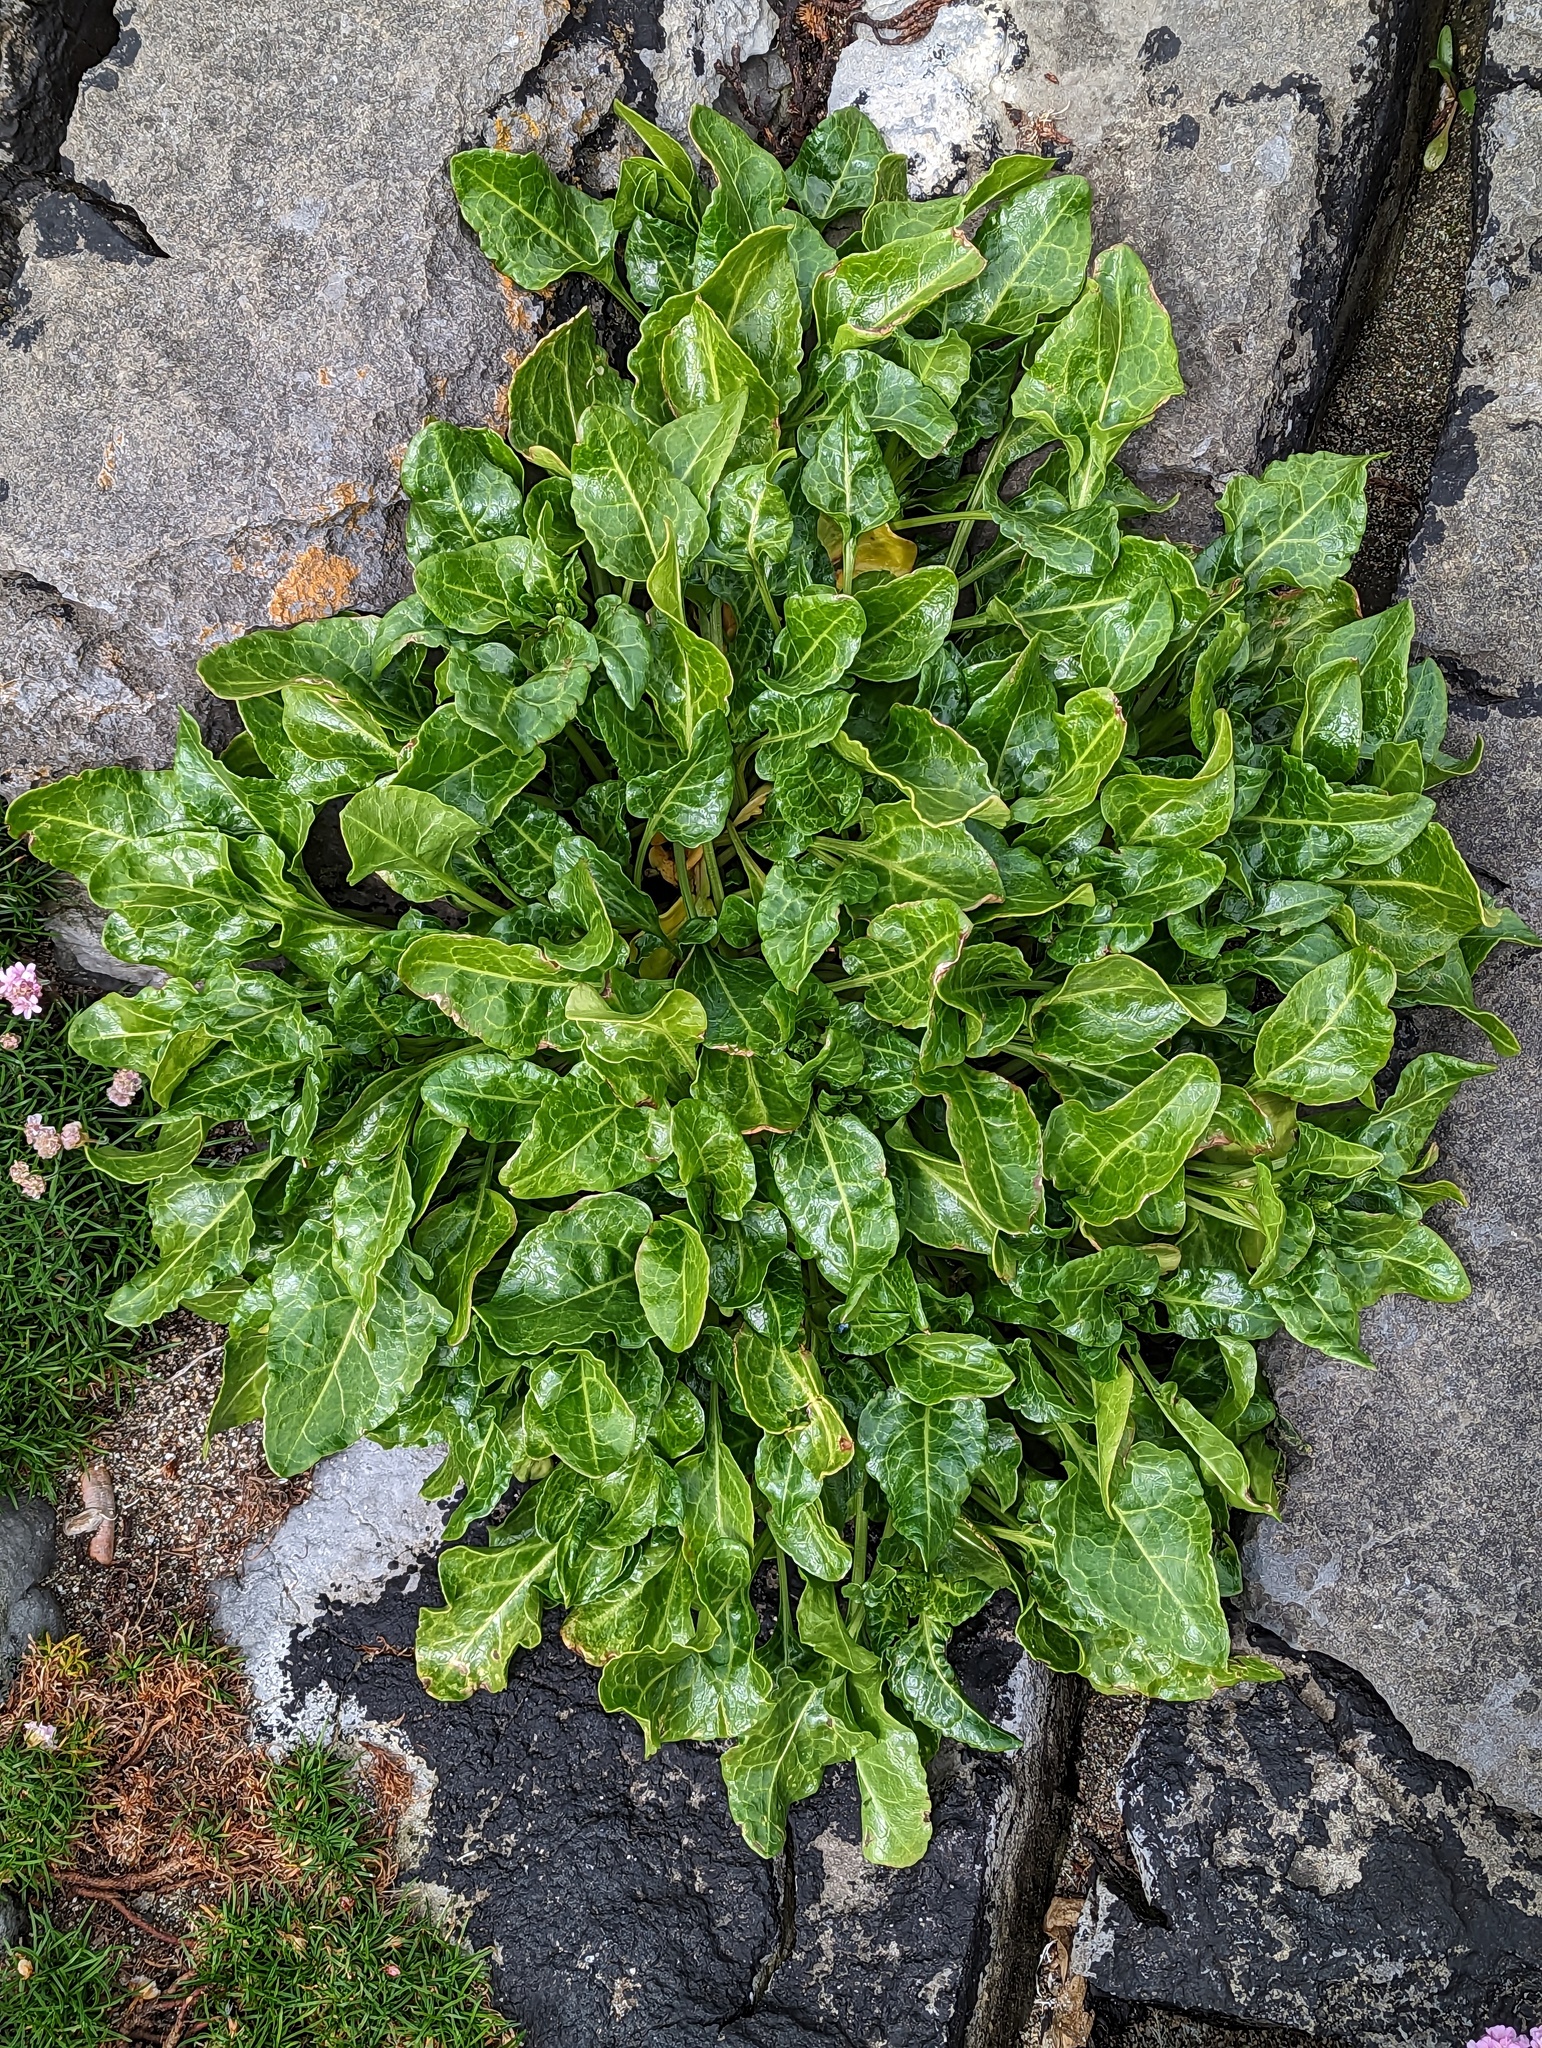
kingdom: Plantae
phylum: Tracheophyta
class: Magnoliopsida
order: Caryophyllales
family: Amaranthaceae
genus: Beta
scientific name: Beta vulgaris
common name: Beet
